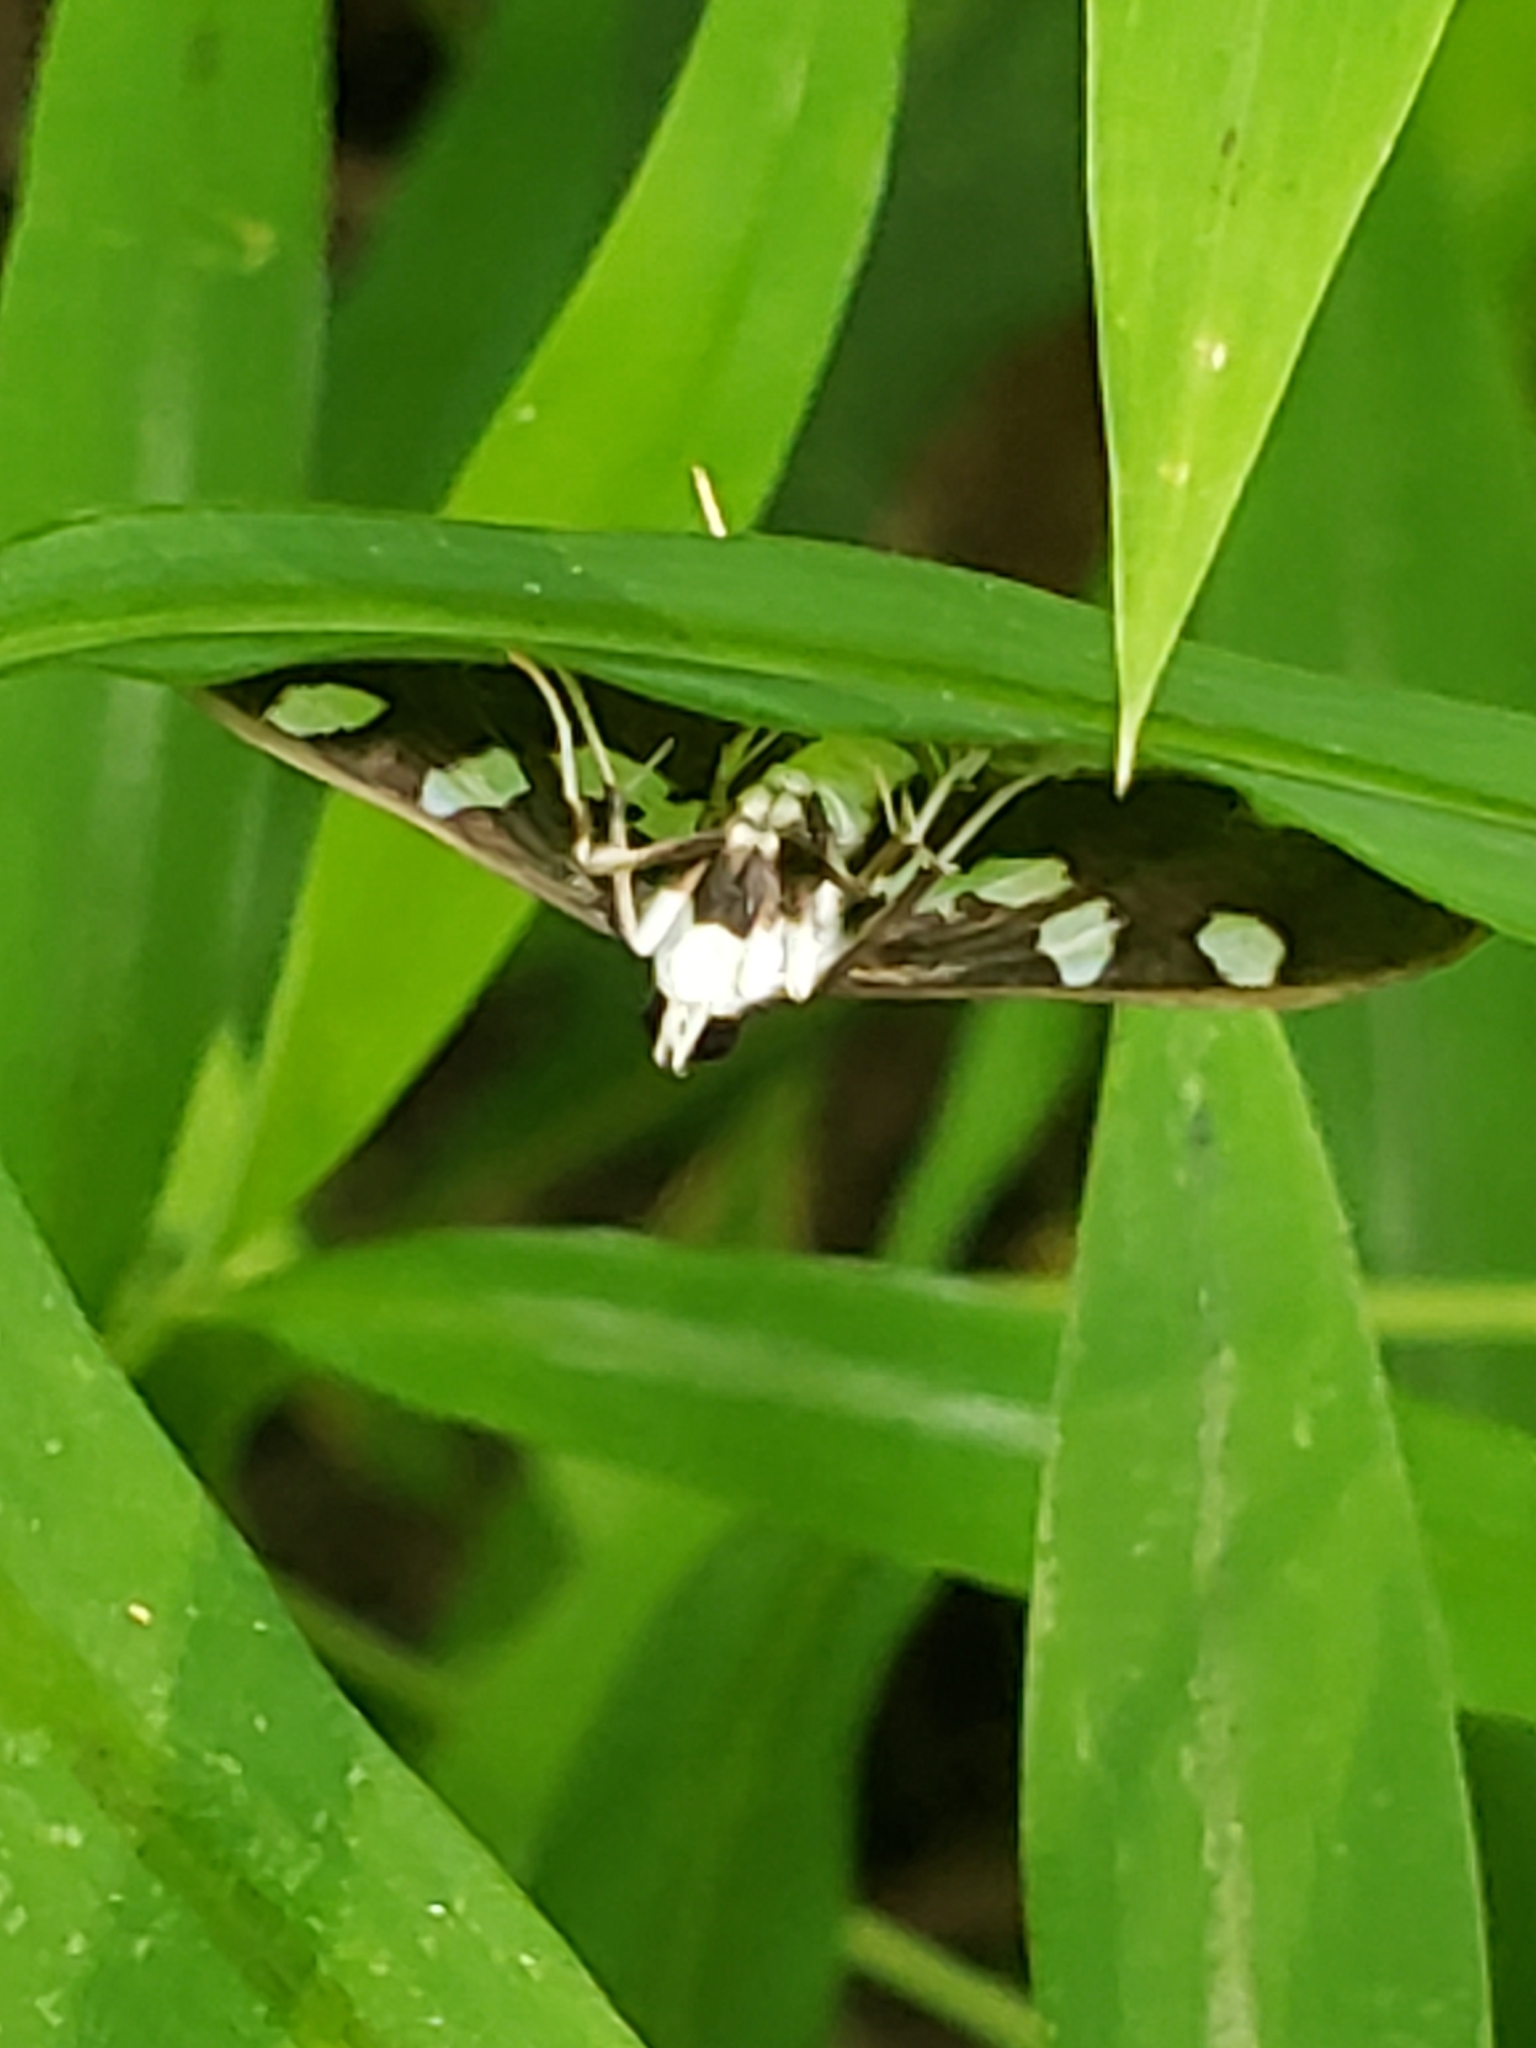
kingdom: Animalia
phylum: Arthropoda
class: Insecta
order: Lepidoptera
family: Crambidae
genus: Desmia
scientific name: Desmia funeralis
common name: Grape leaf folder moth
